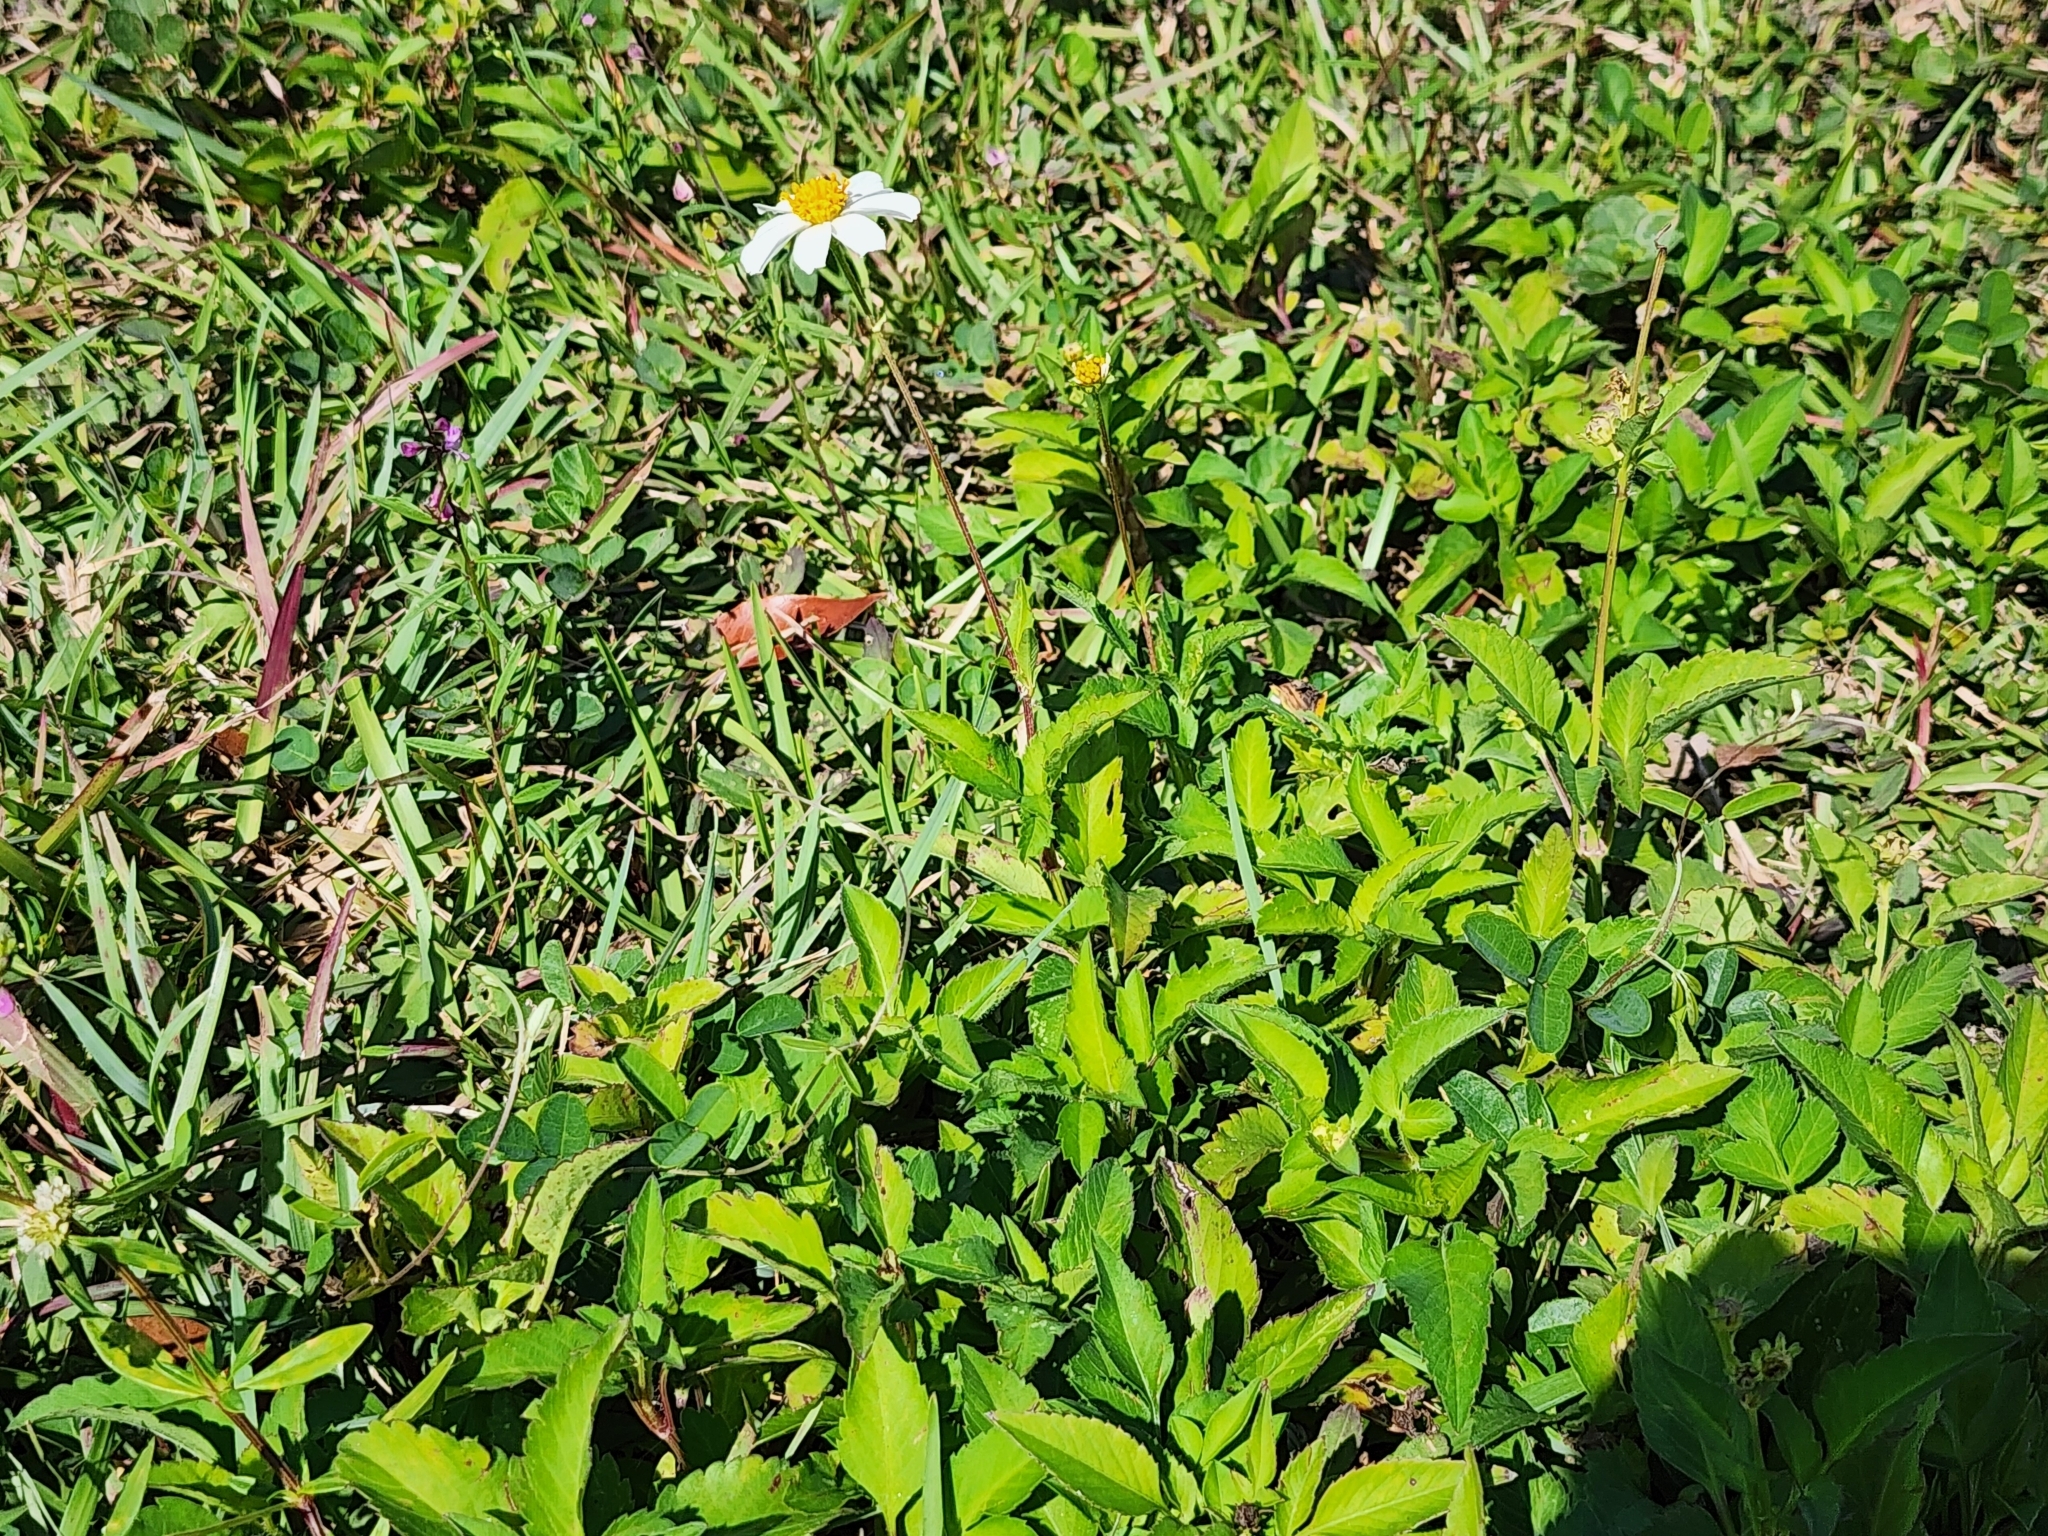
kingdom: Plantae
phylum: Tracheophyta
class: Magnoliopsida
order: Asterales
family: Asteraceae
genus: Bidens
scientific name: Bidens alba
